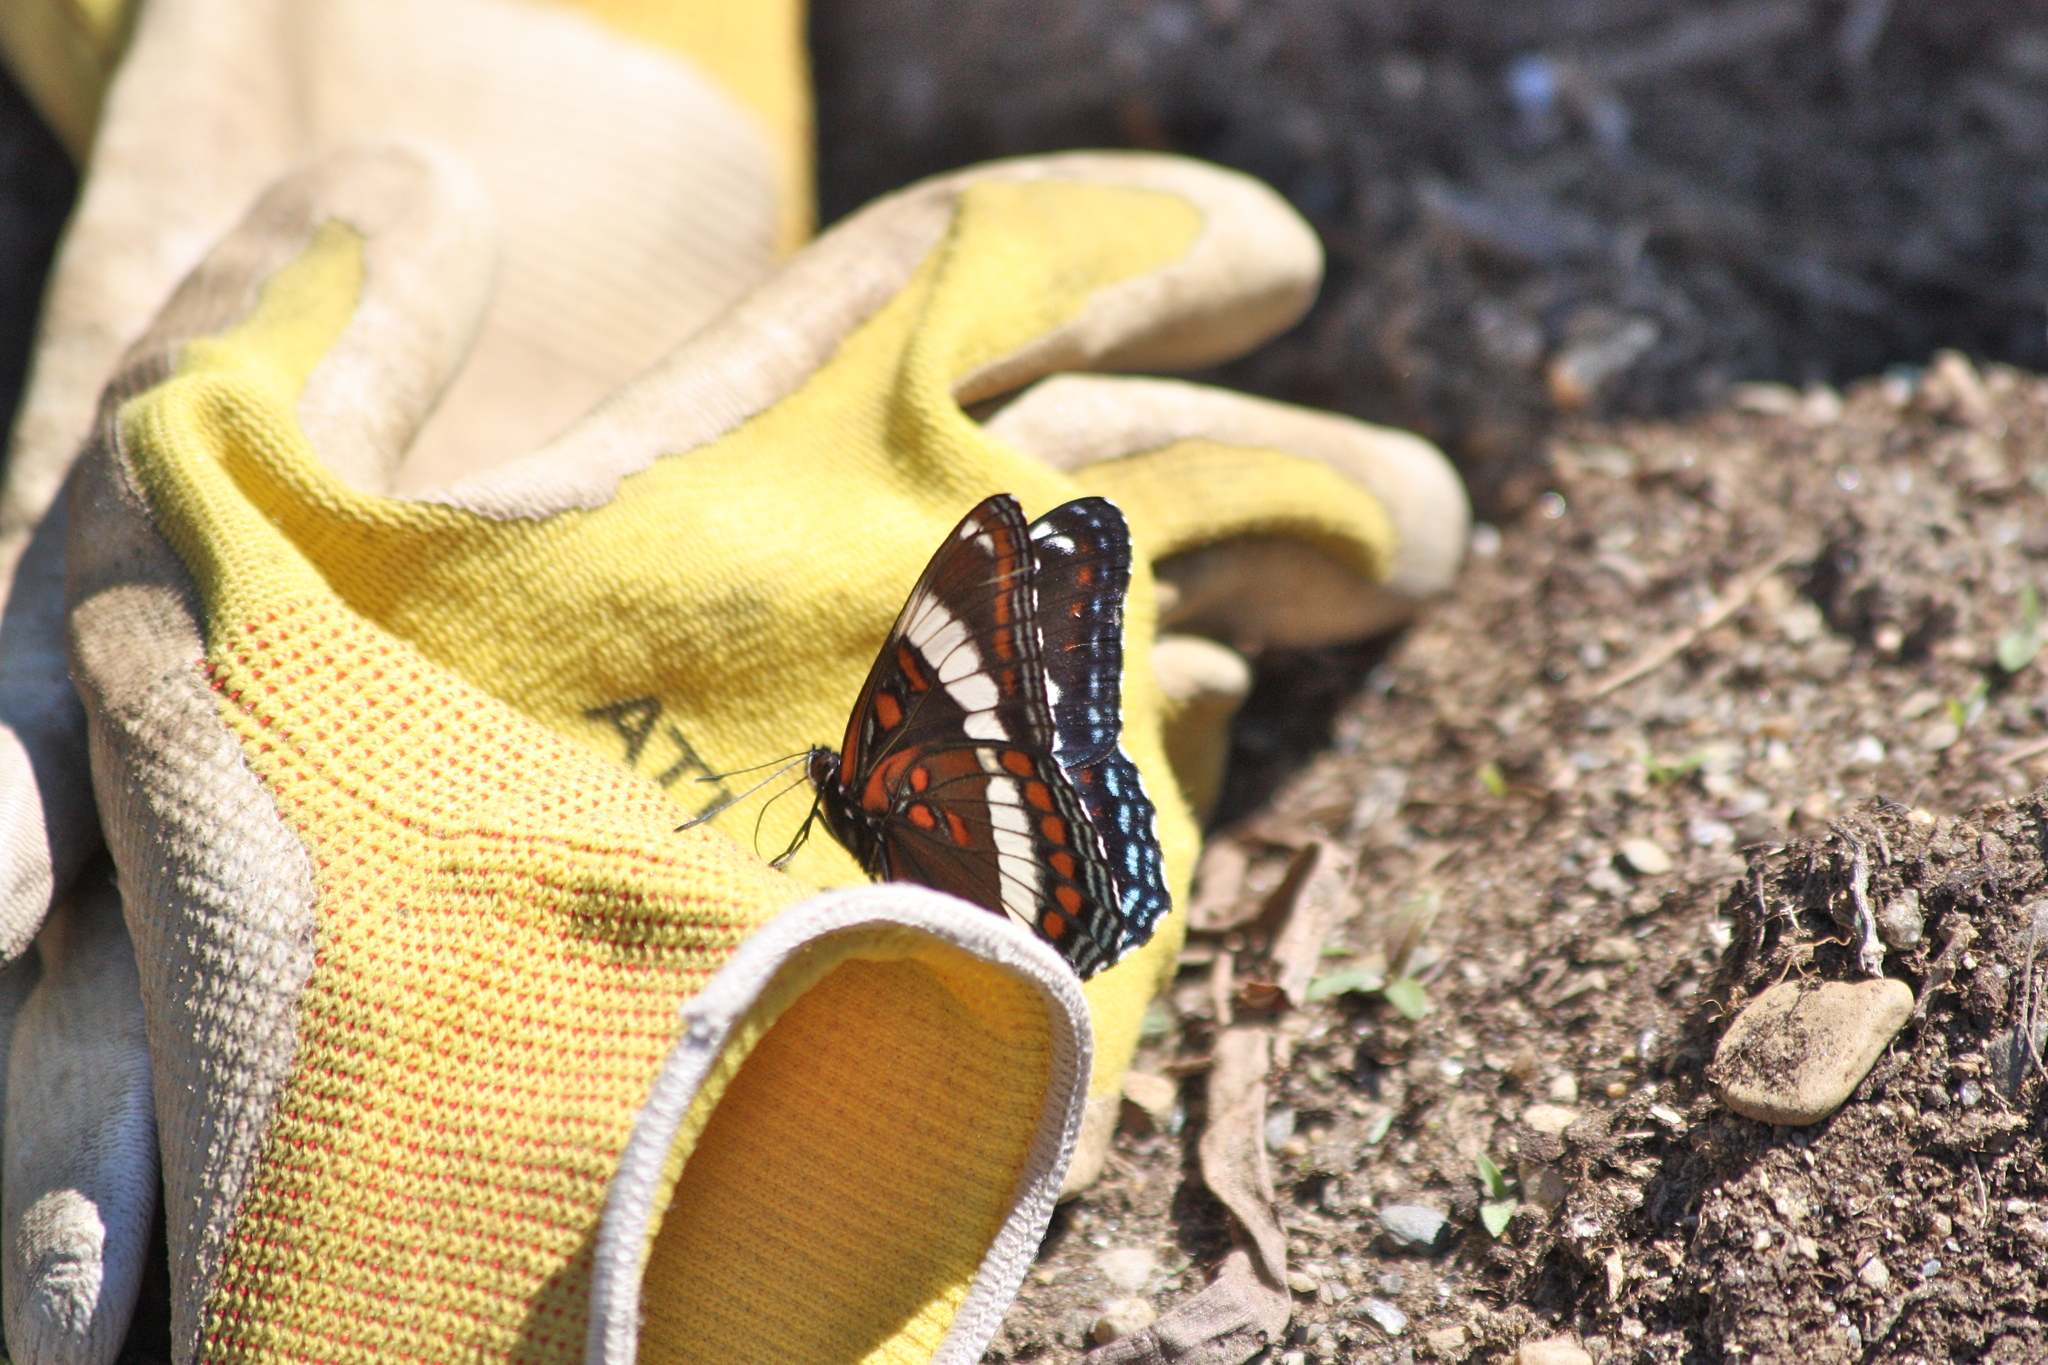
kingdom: Animalia
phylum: Arthropoda
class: Insecta
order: Lepidoptera
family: Nymphalidae
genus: Limenitis
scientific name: Limenitis arthemis
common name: Red-spotted admiral
